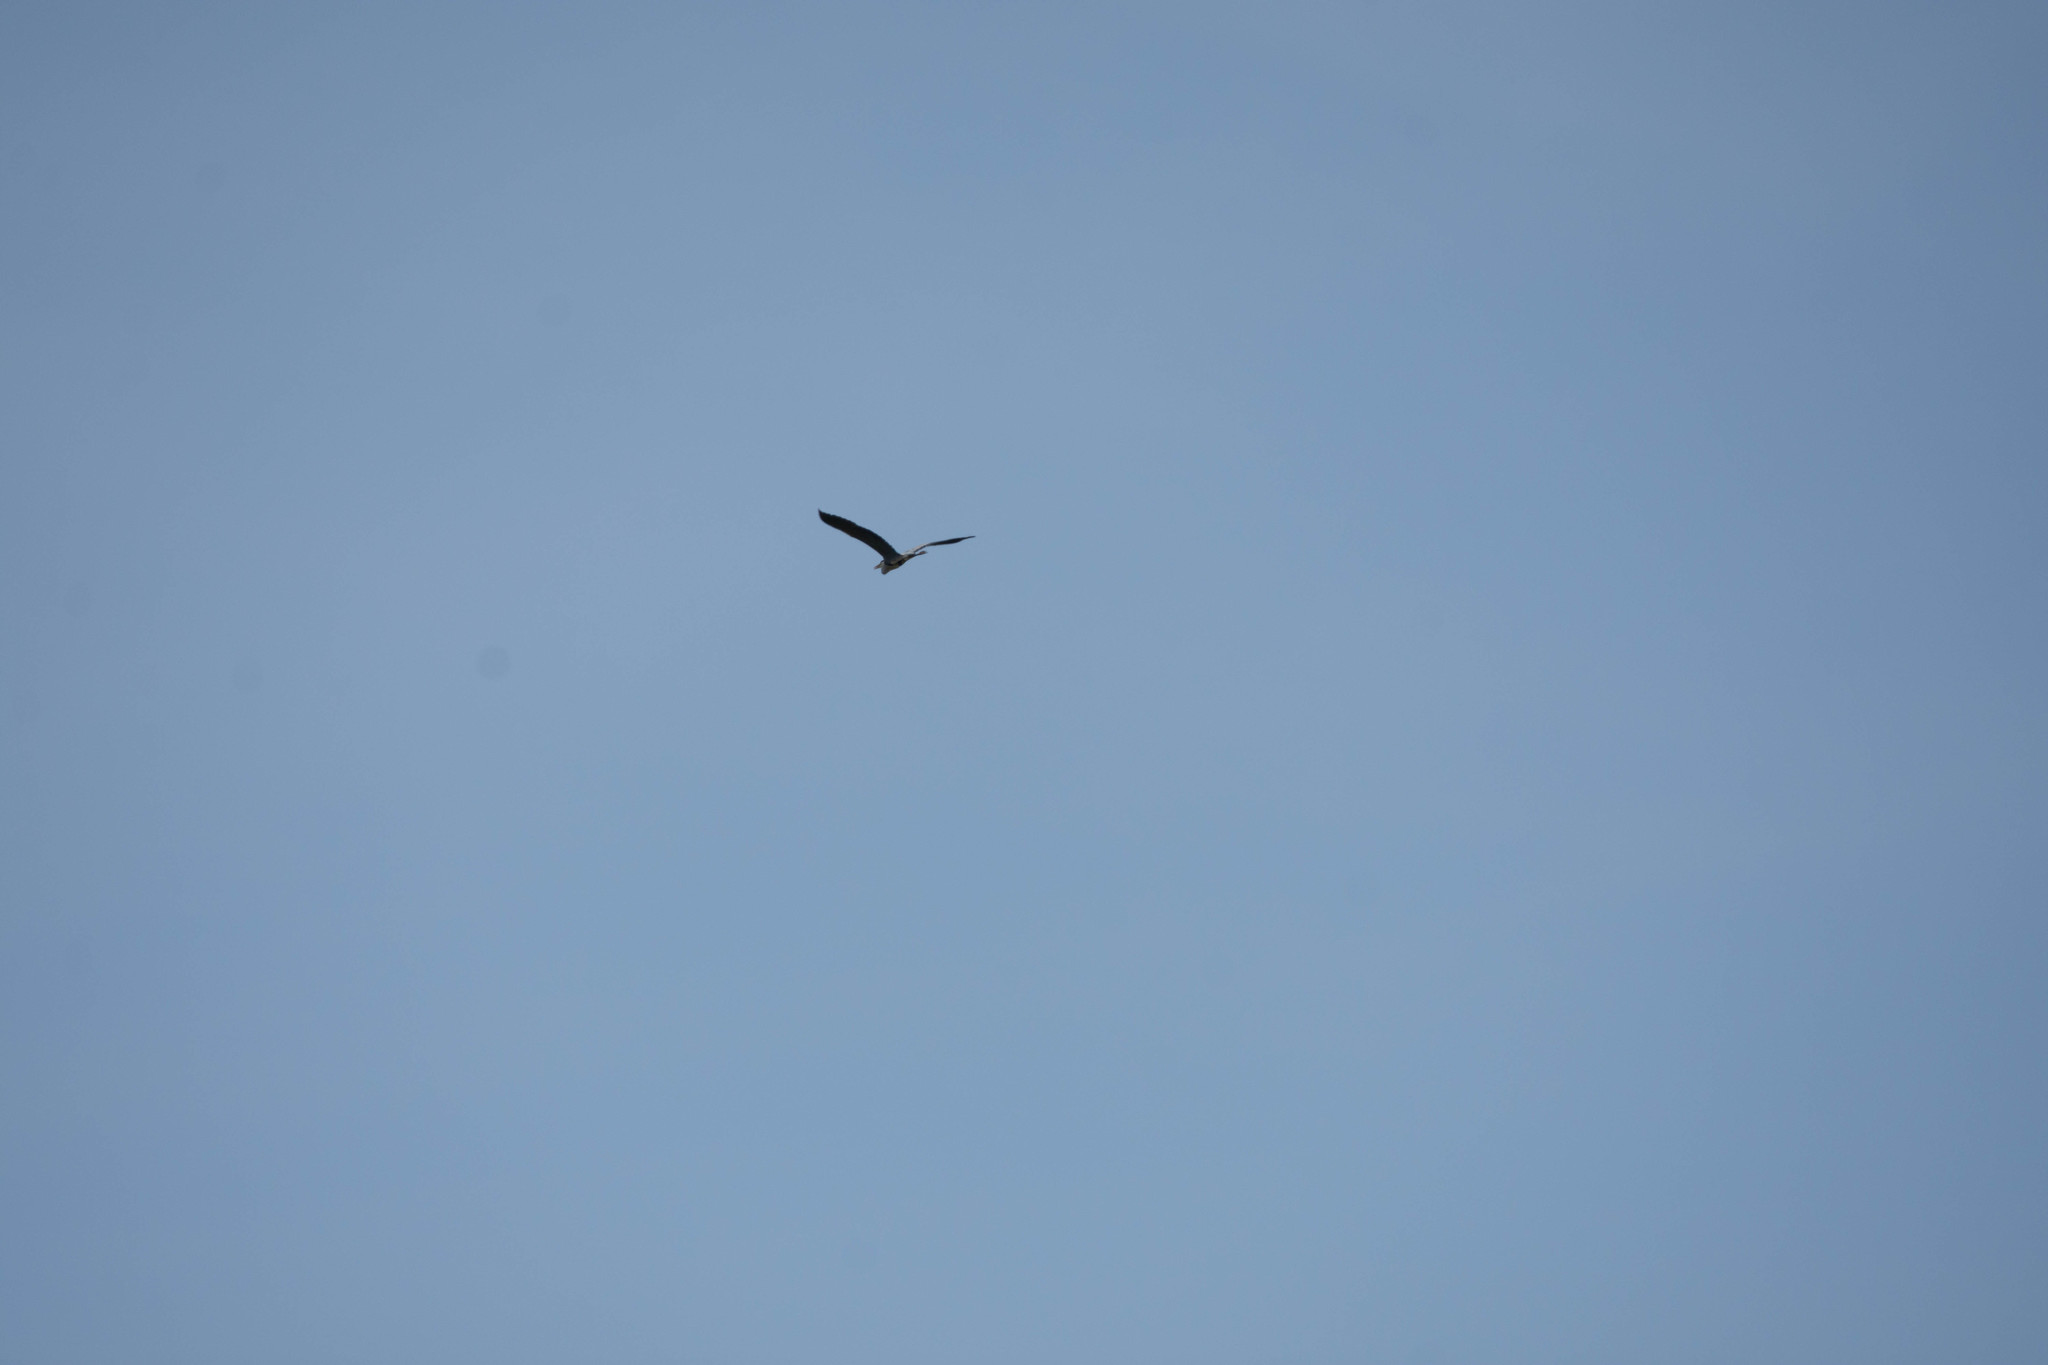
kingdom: Animalia
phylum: Chordata
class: Aves
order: Pelecaniformes
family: Ardeidae
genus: Ardea
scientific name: Ardea cinerea
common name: Grey heron
